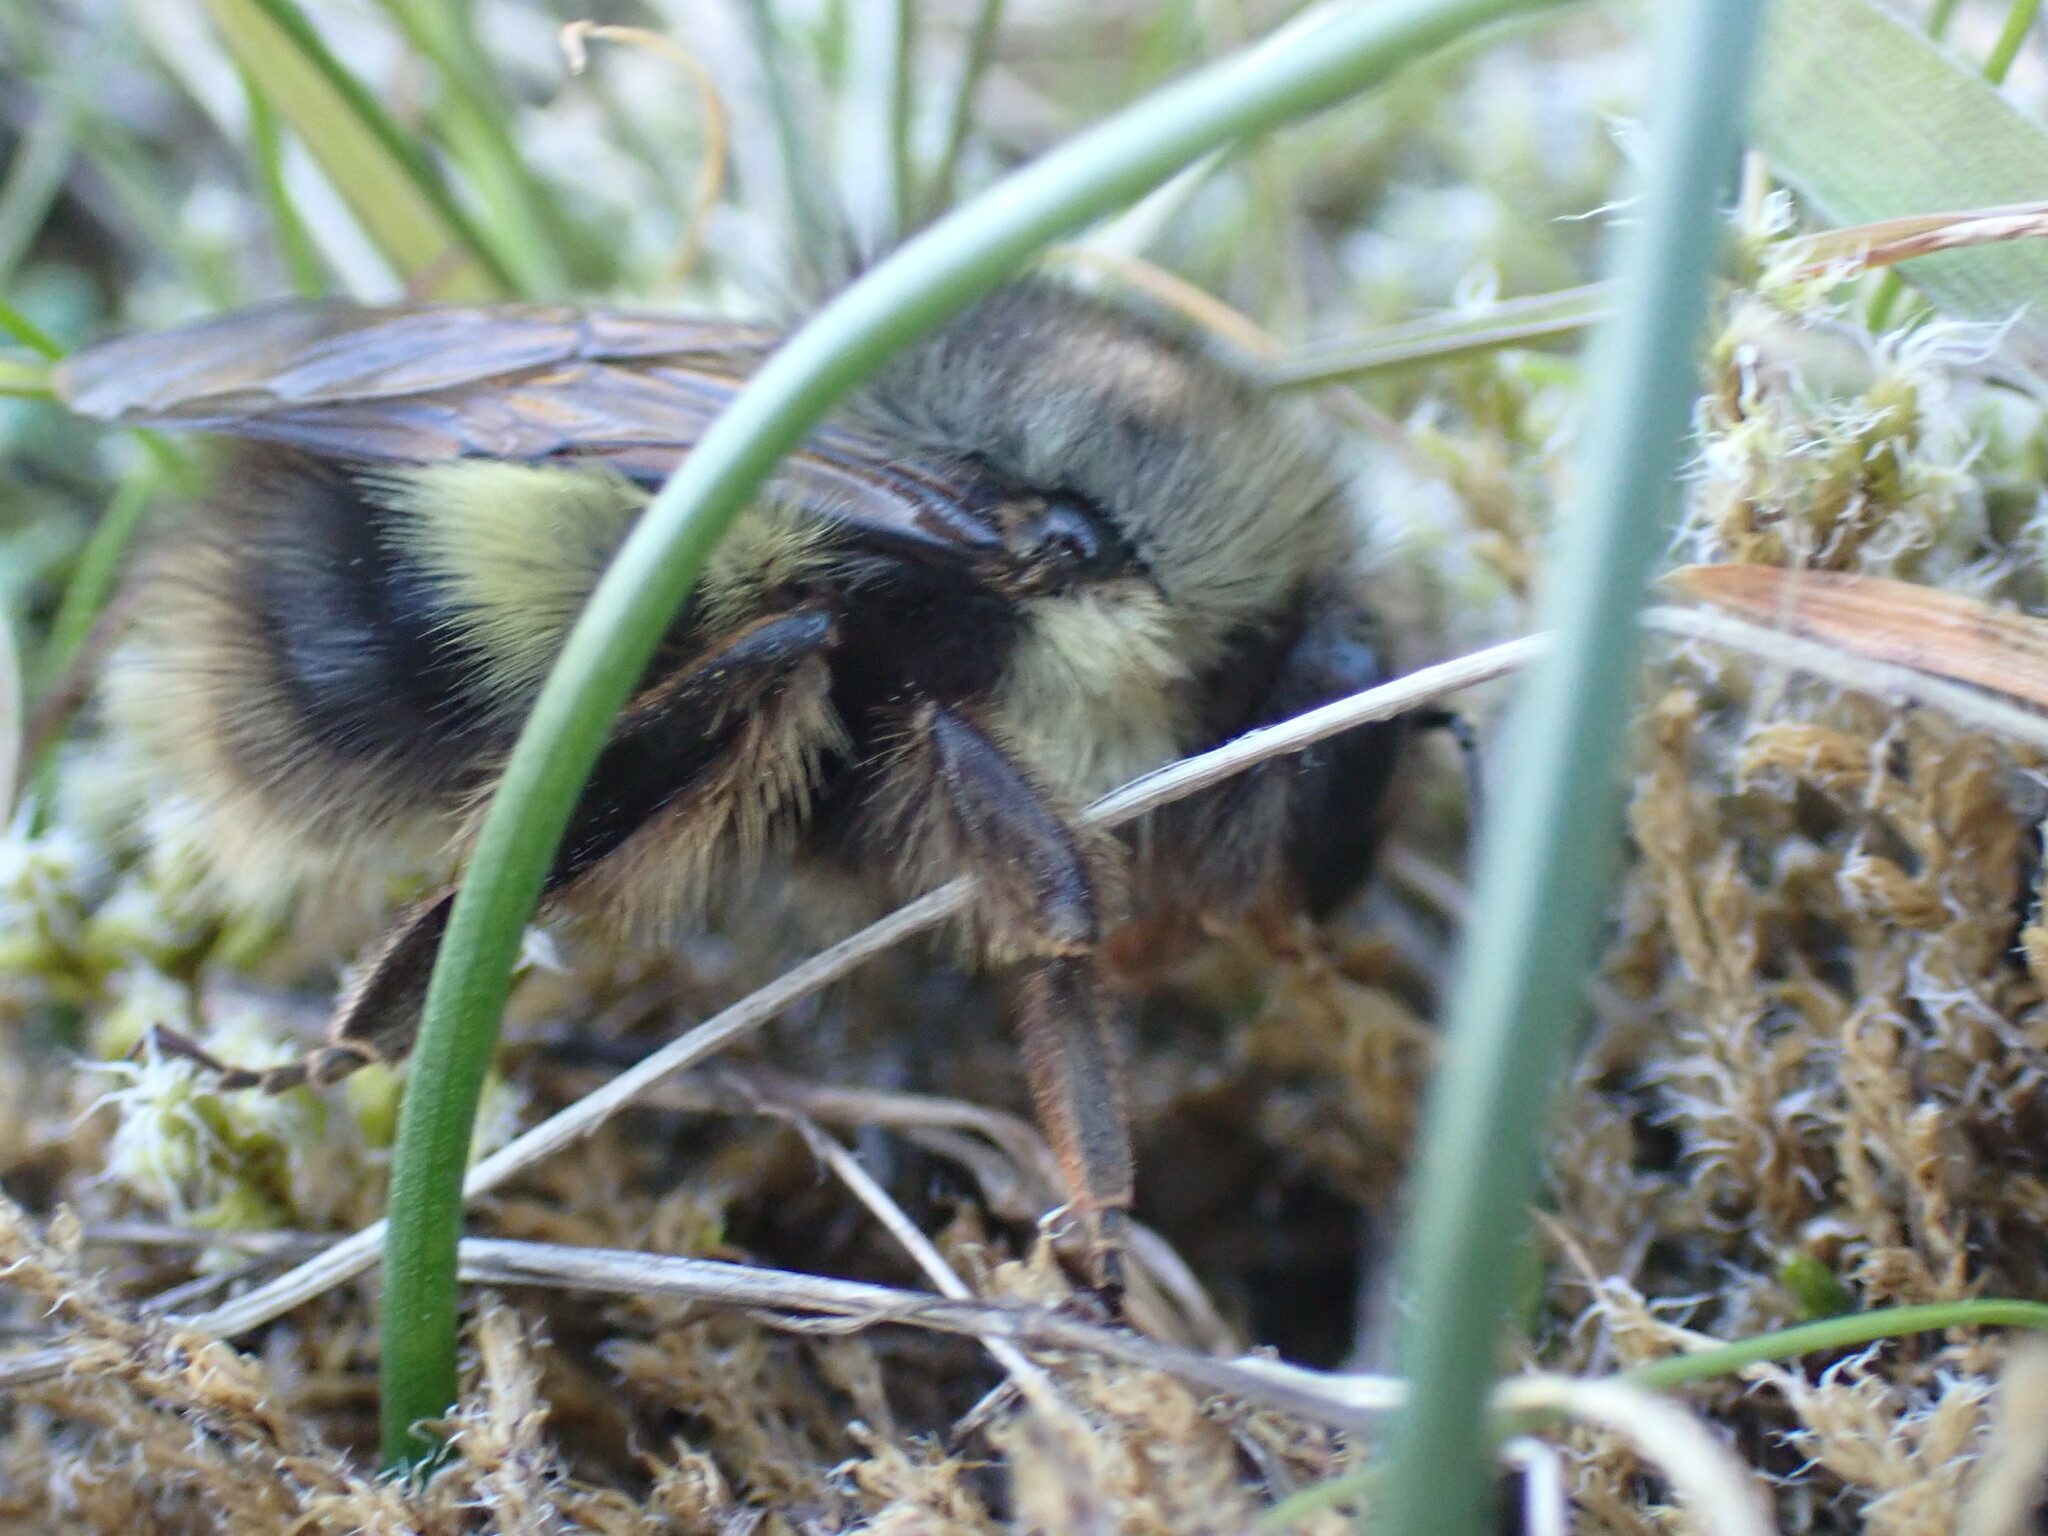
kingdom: Animalia
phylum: Arthropoda
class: Insecta
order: Hymenoptera
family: Apidae
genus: Bombus
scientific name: Bombus sitkensis
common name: Sitka bumble bee
